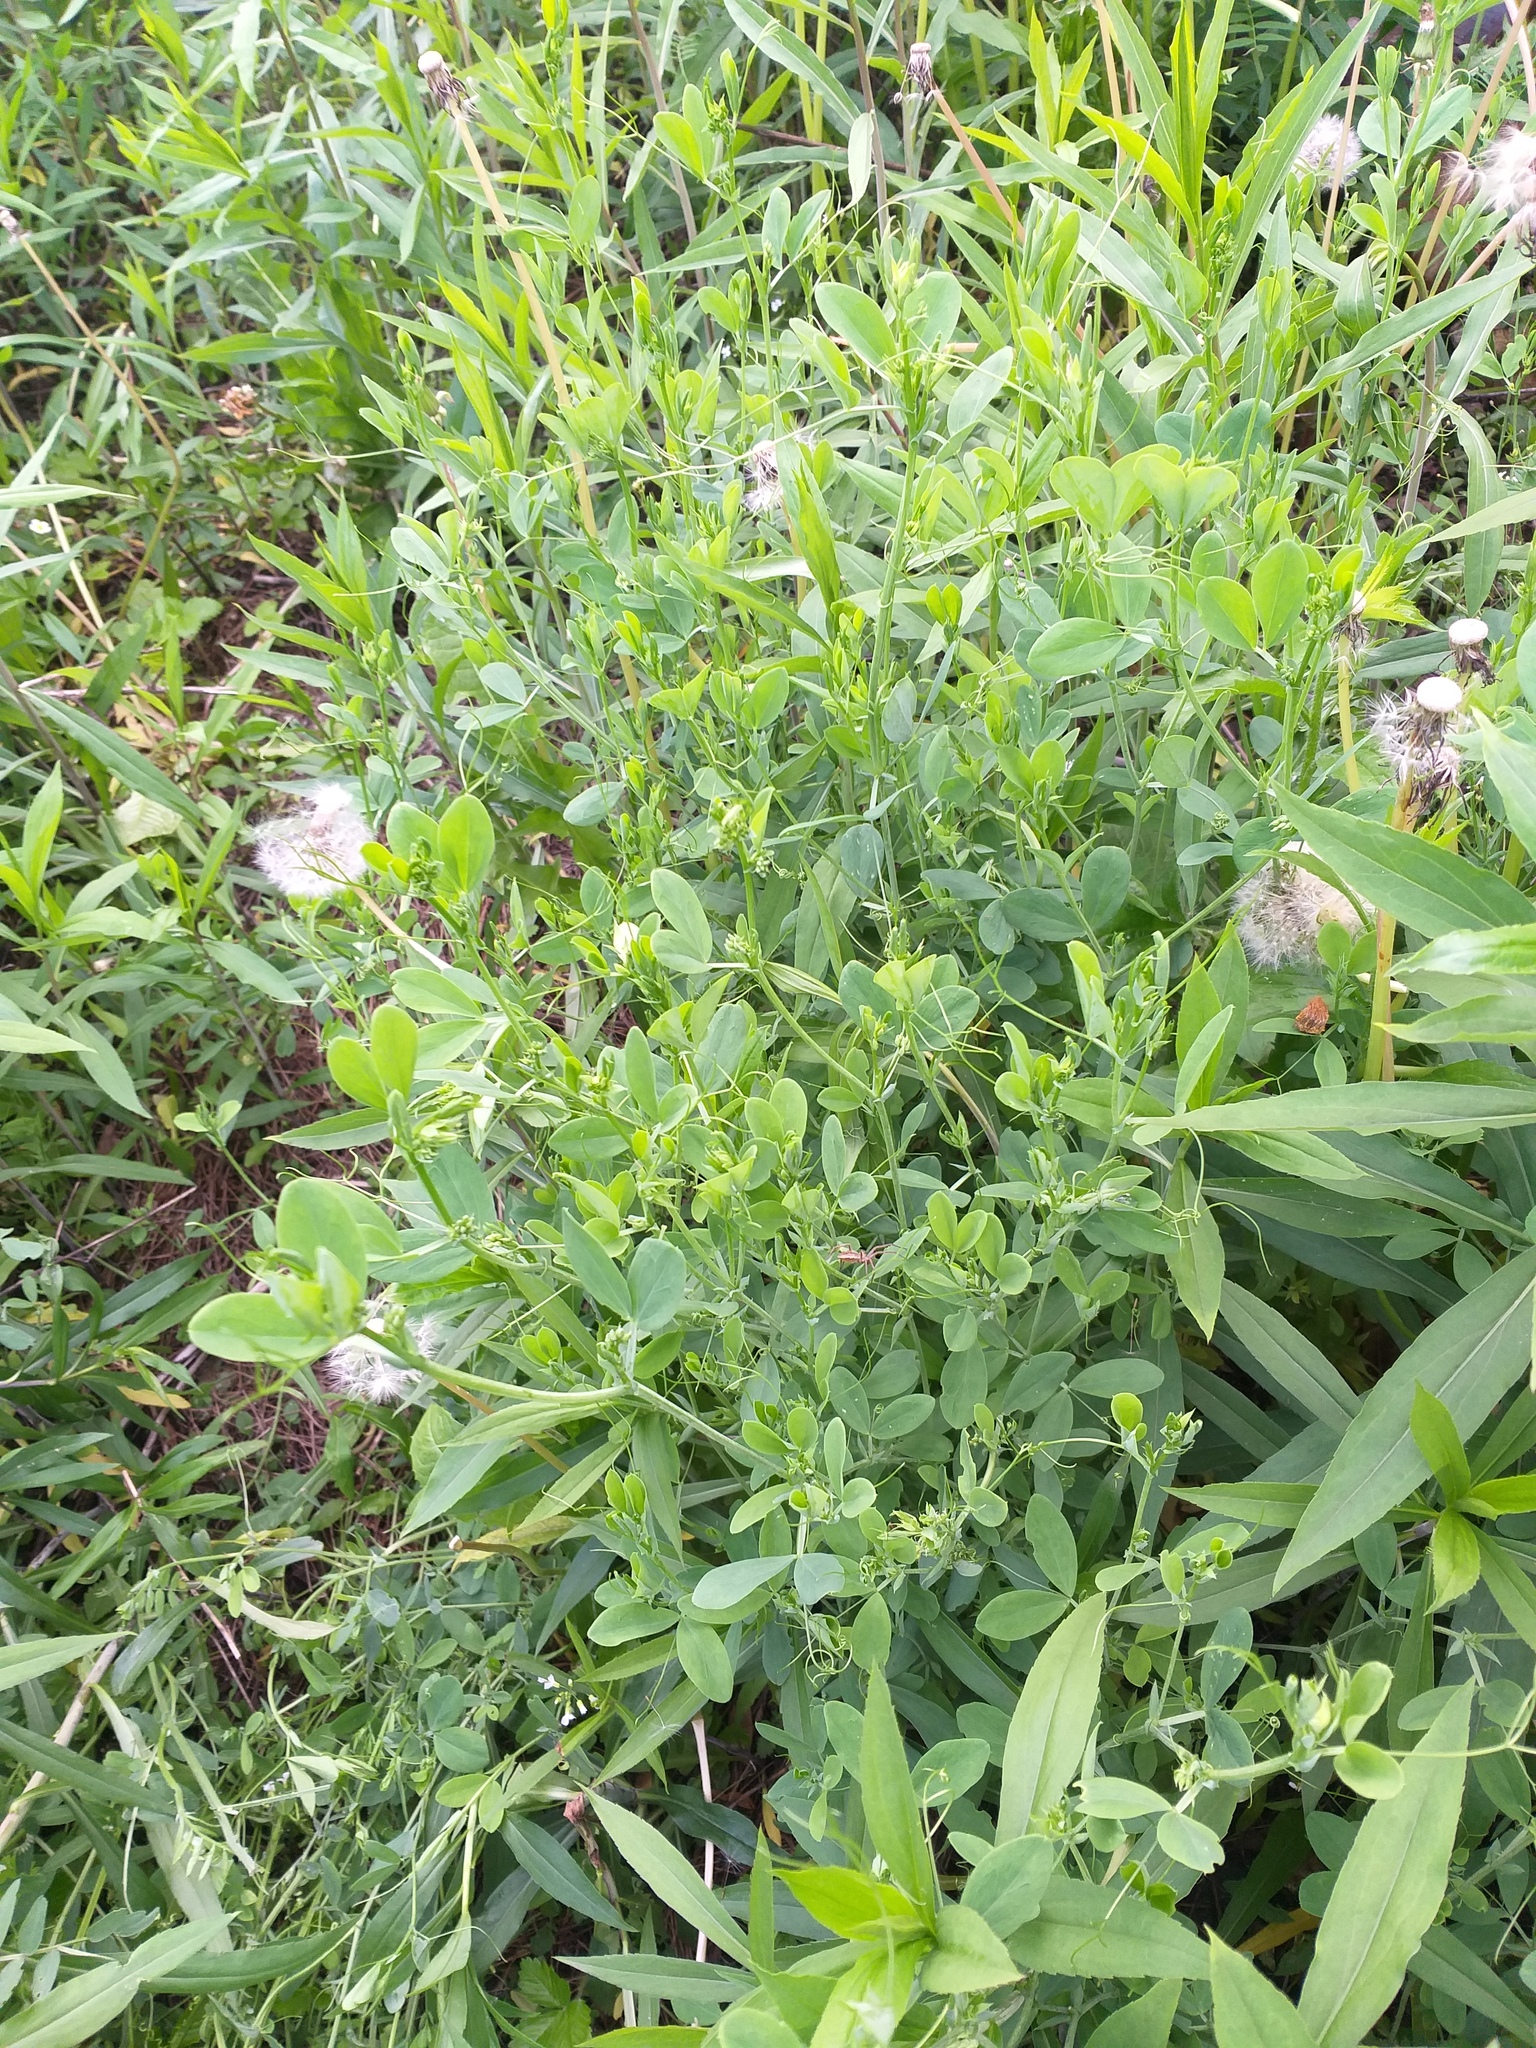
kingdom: Plantae
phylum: Tracheophyta
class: Magnoliopsida
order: Fabales
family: Fabaceae
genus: Lathyrus
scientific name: Lathyrus tuberosus
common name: Tuberous pea
